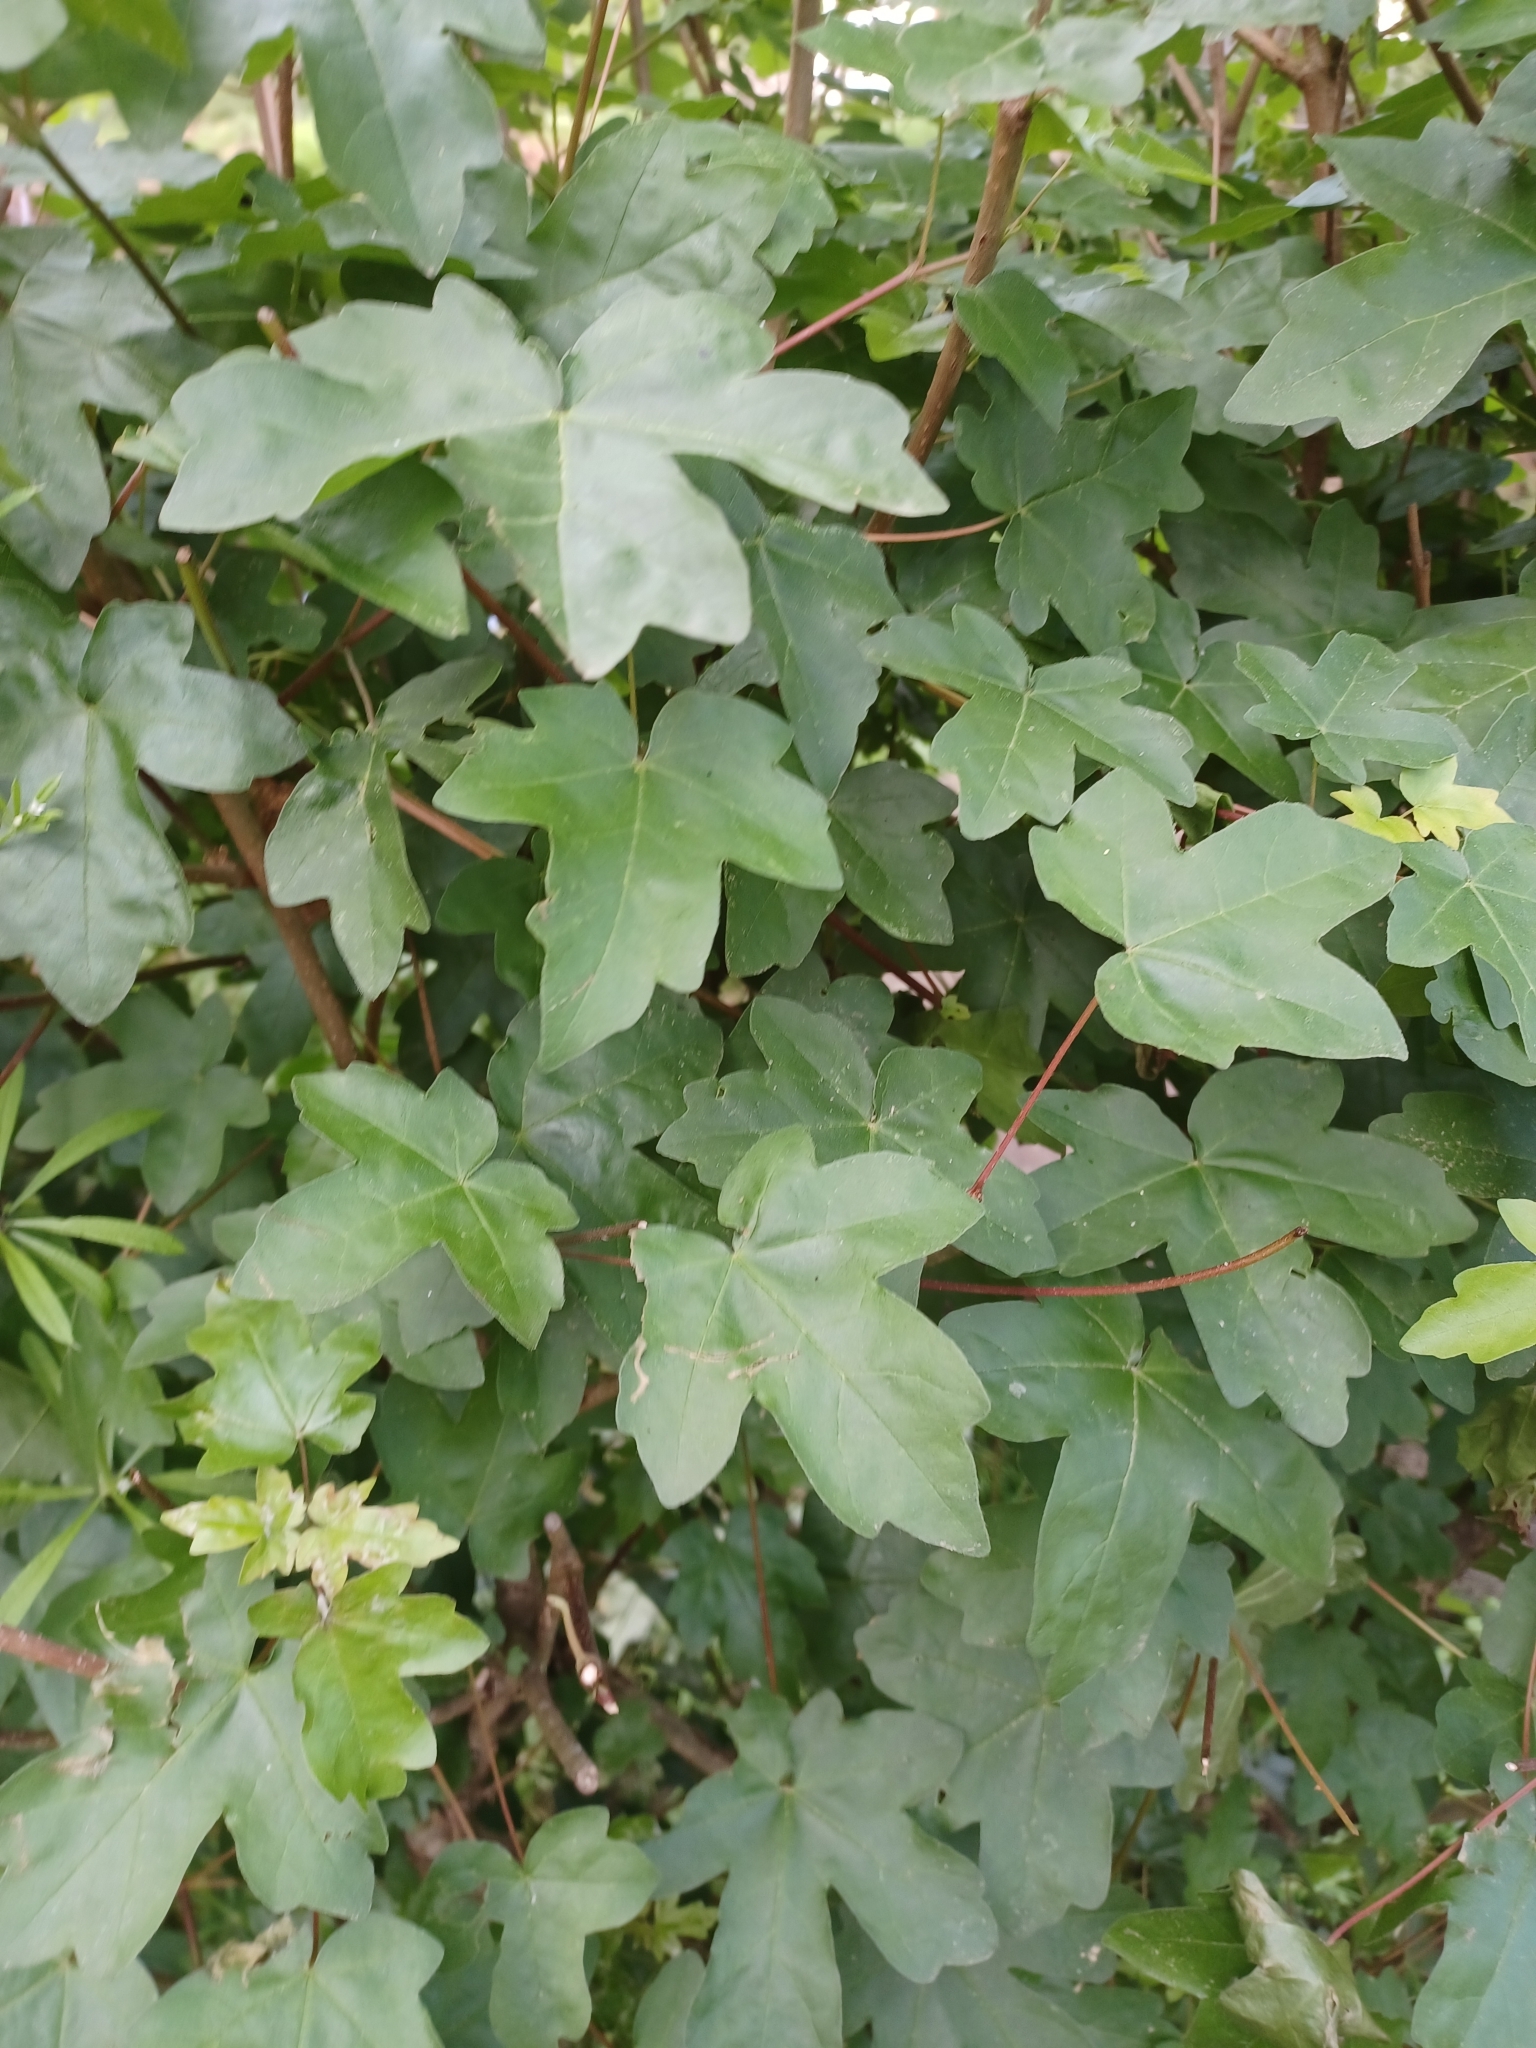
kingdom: Plantae
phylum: Tracheophyta
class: Magnoliopsida
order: Sapindales
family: Sapindaceae
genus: Acer
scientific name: Acer campestre
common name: Field maple
